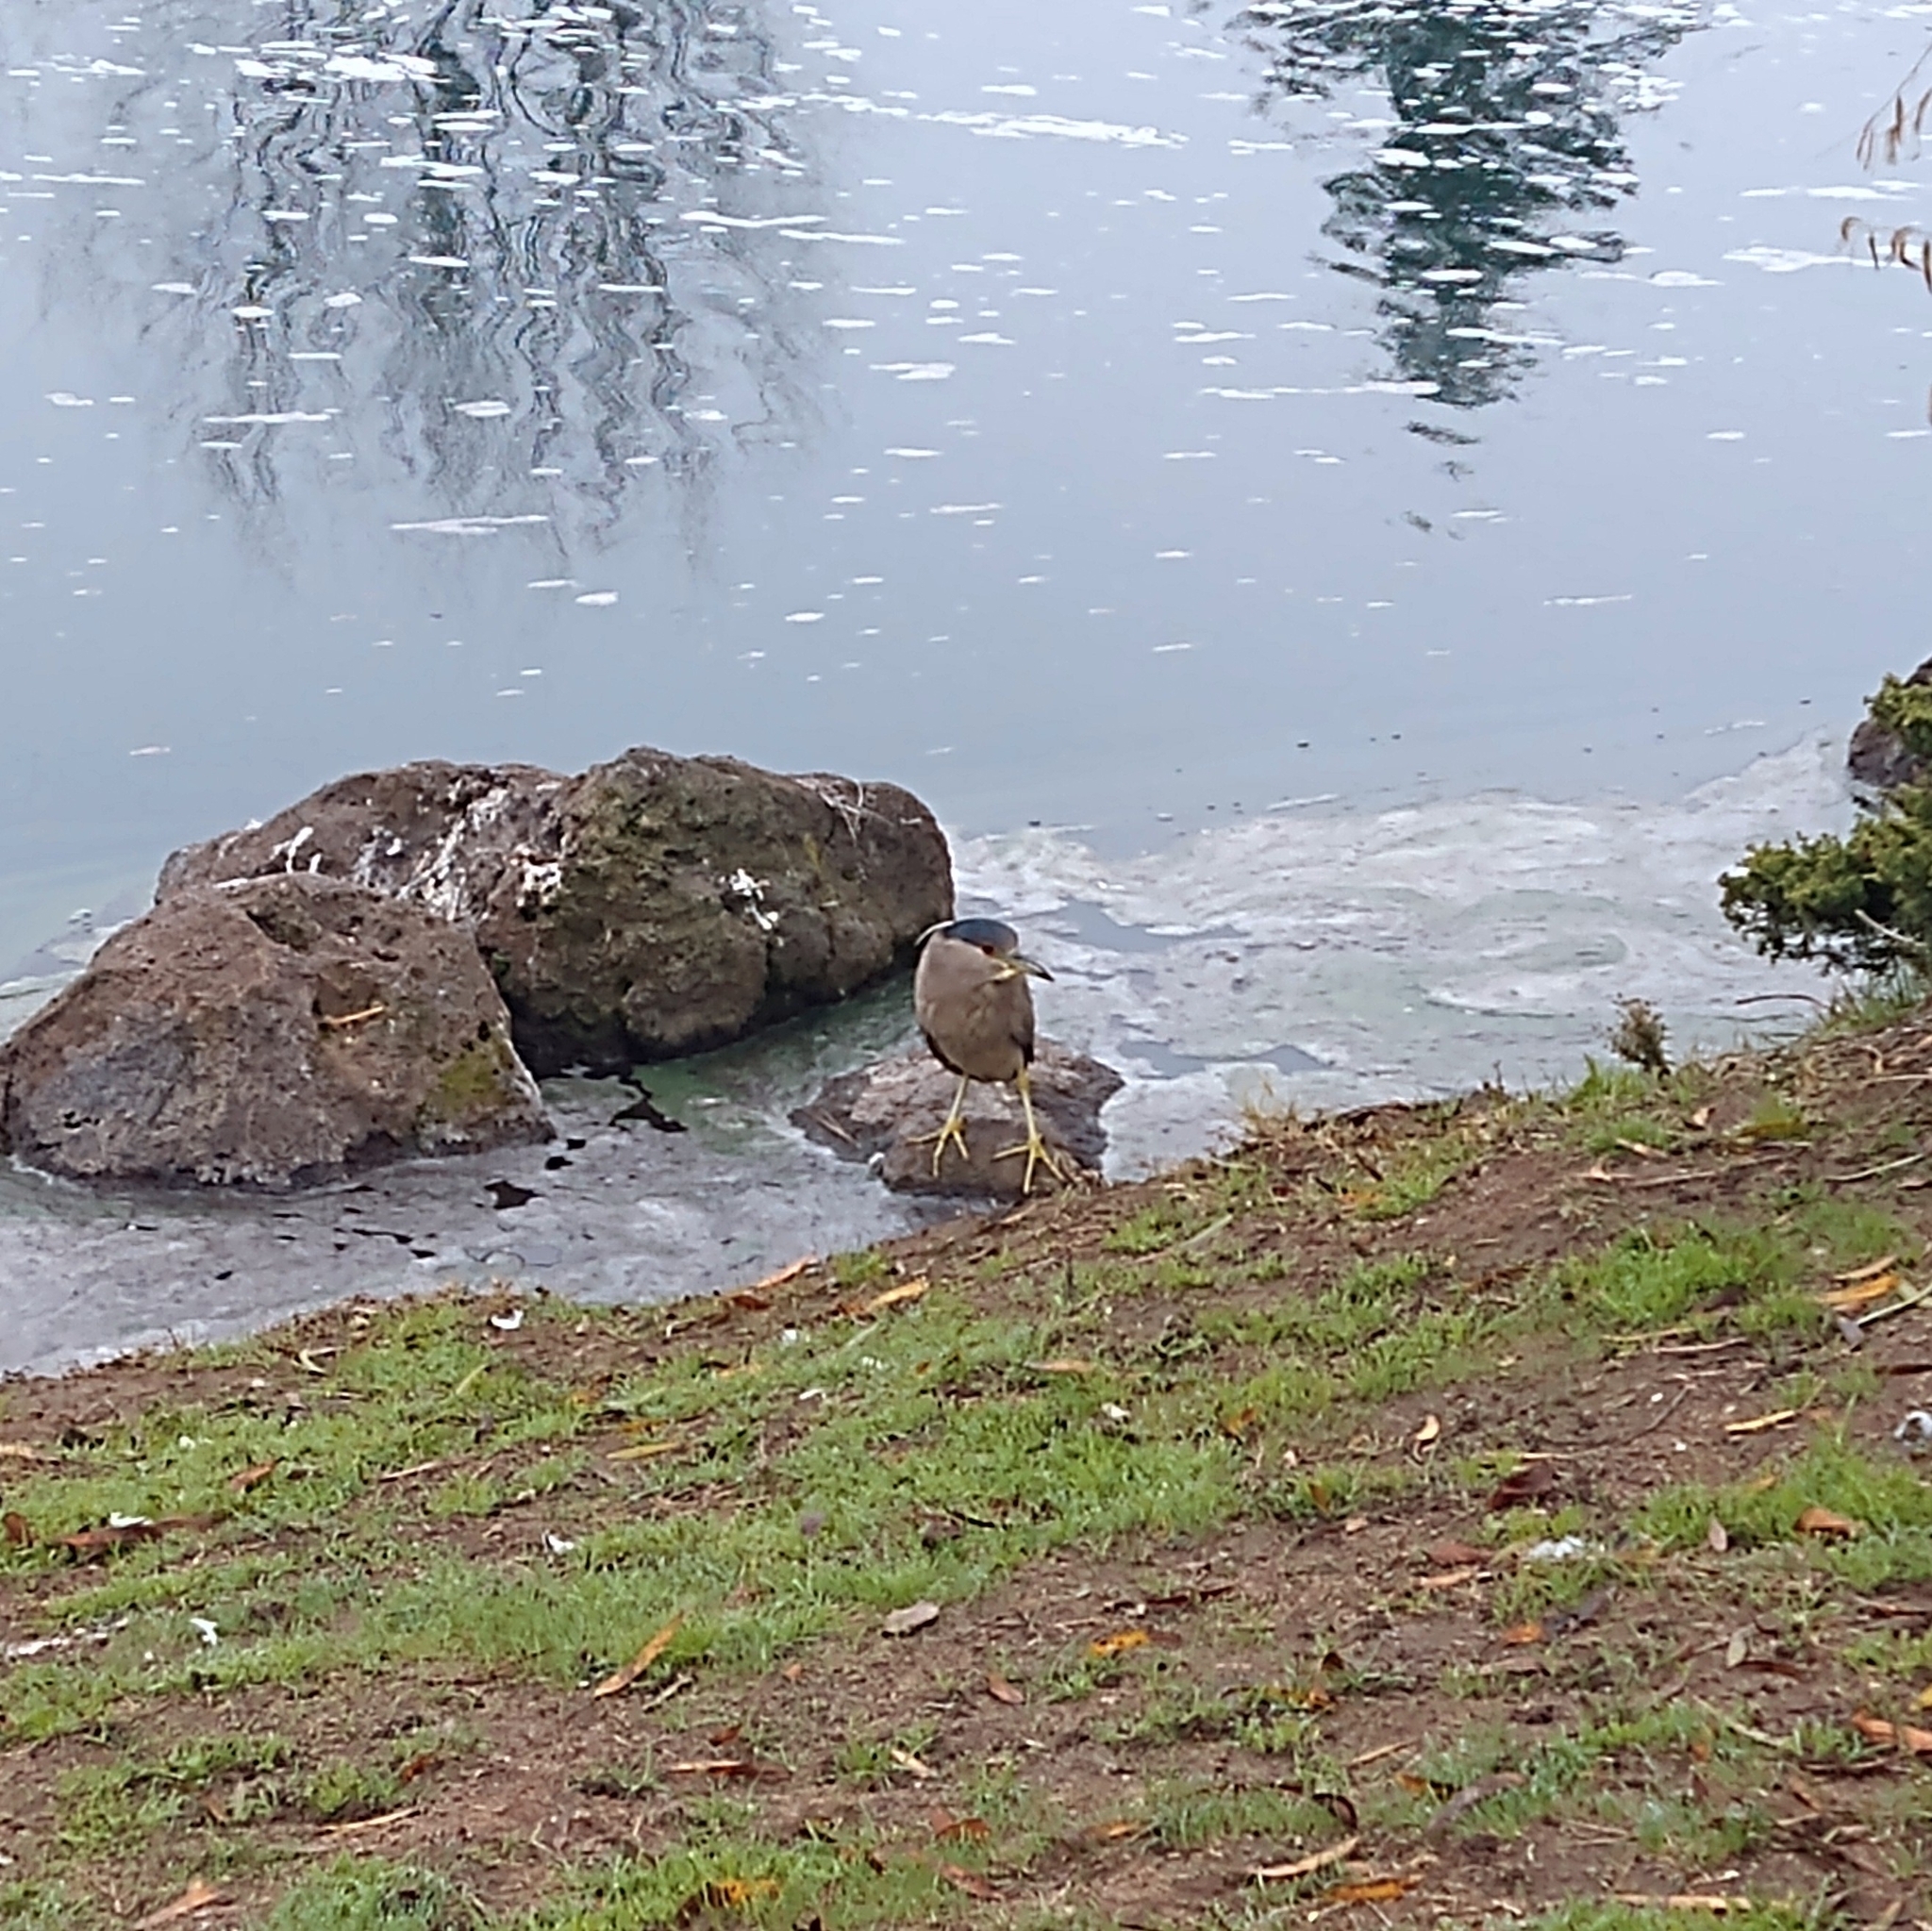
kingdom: Animalia
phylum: Chordata
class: Aves
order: Pelecaniformes
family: Ardeidae
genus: Nycticorax
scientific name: Nycticorax nycticorax
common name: Black-crowned night heron
